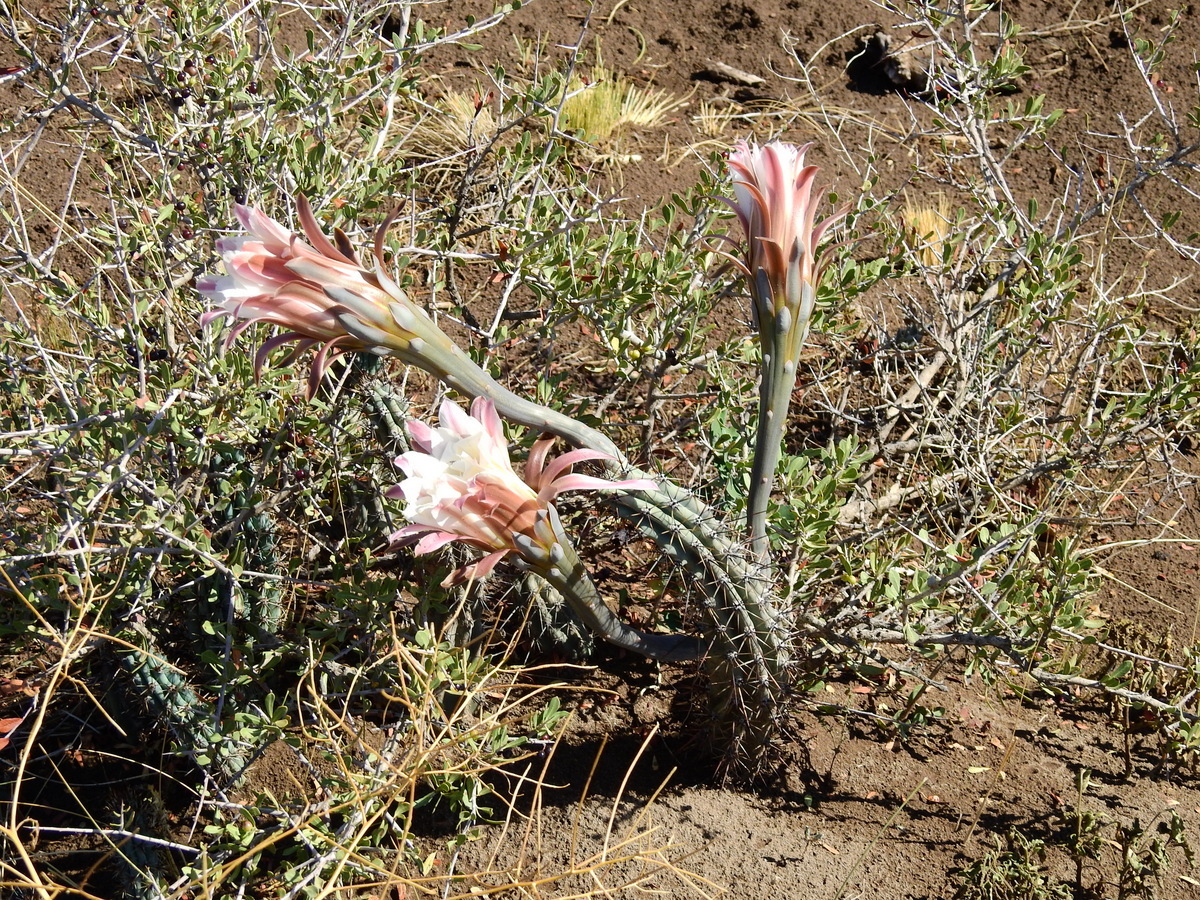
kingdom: Plantae
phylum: Tracheophyta
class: Magnoliopsida
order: Caryophyllales
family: Cactaceae
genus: Cereus
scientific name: Cereus aethiops
